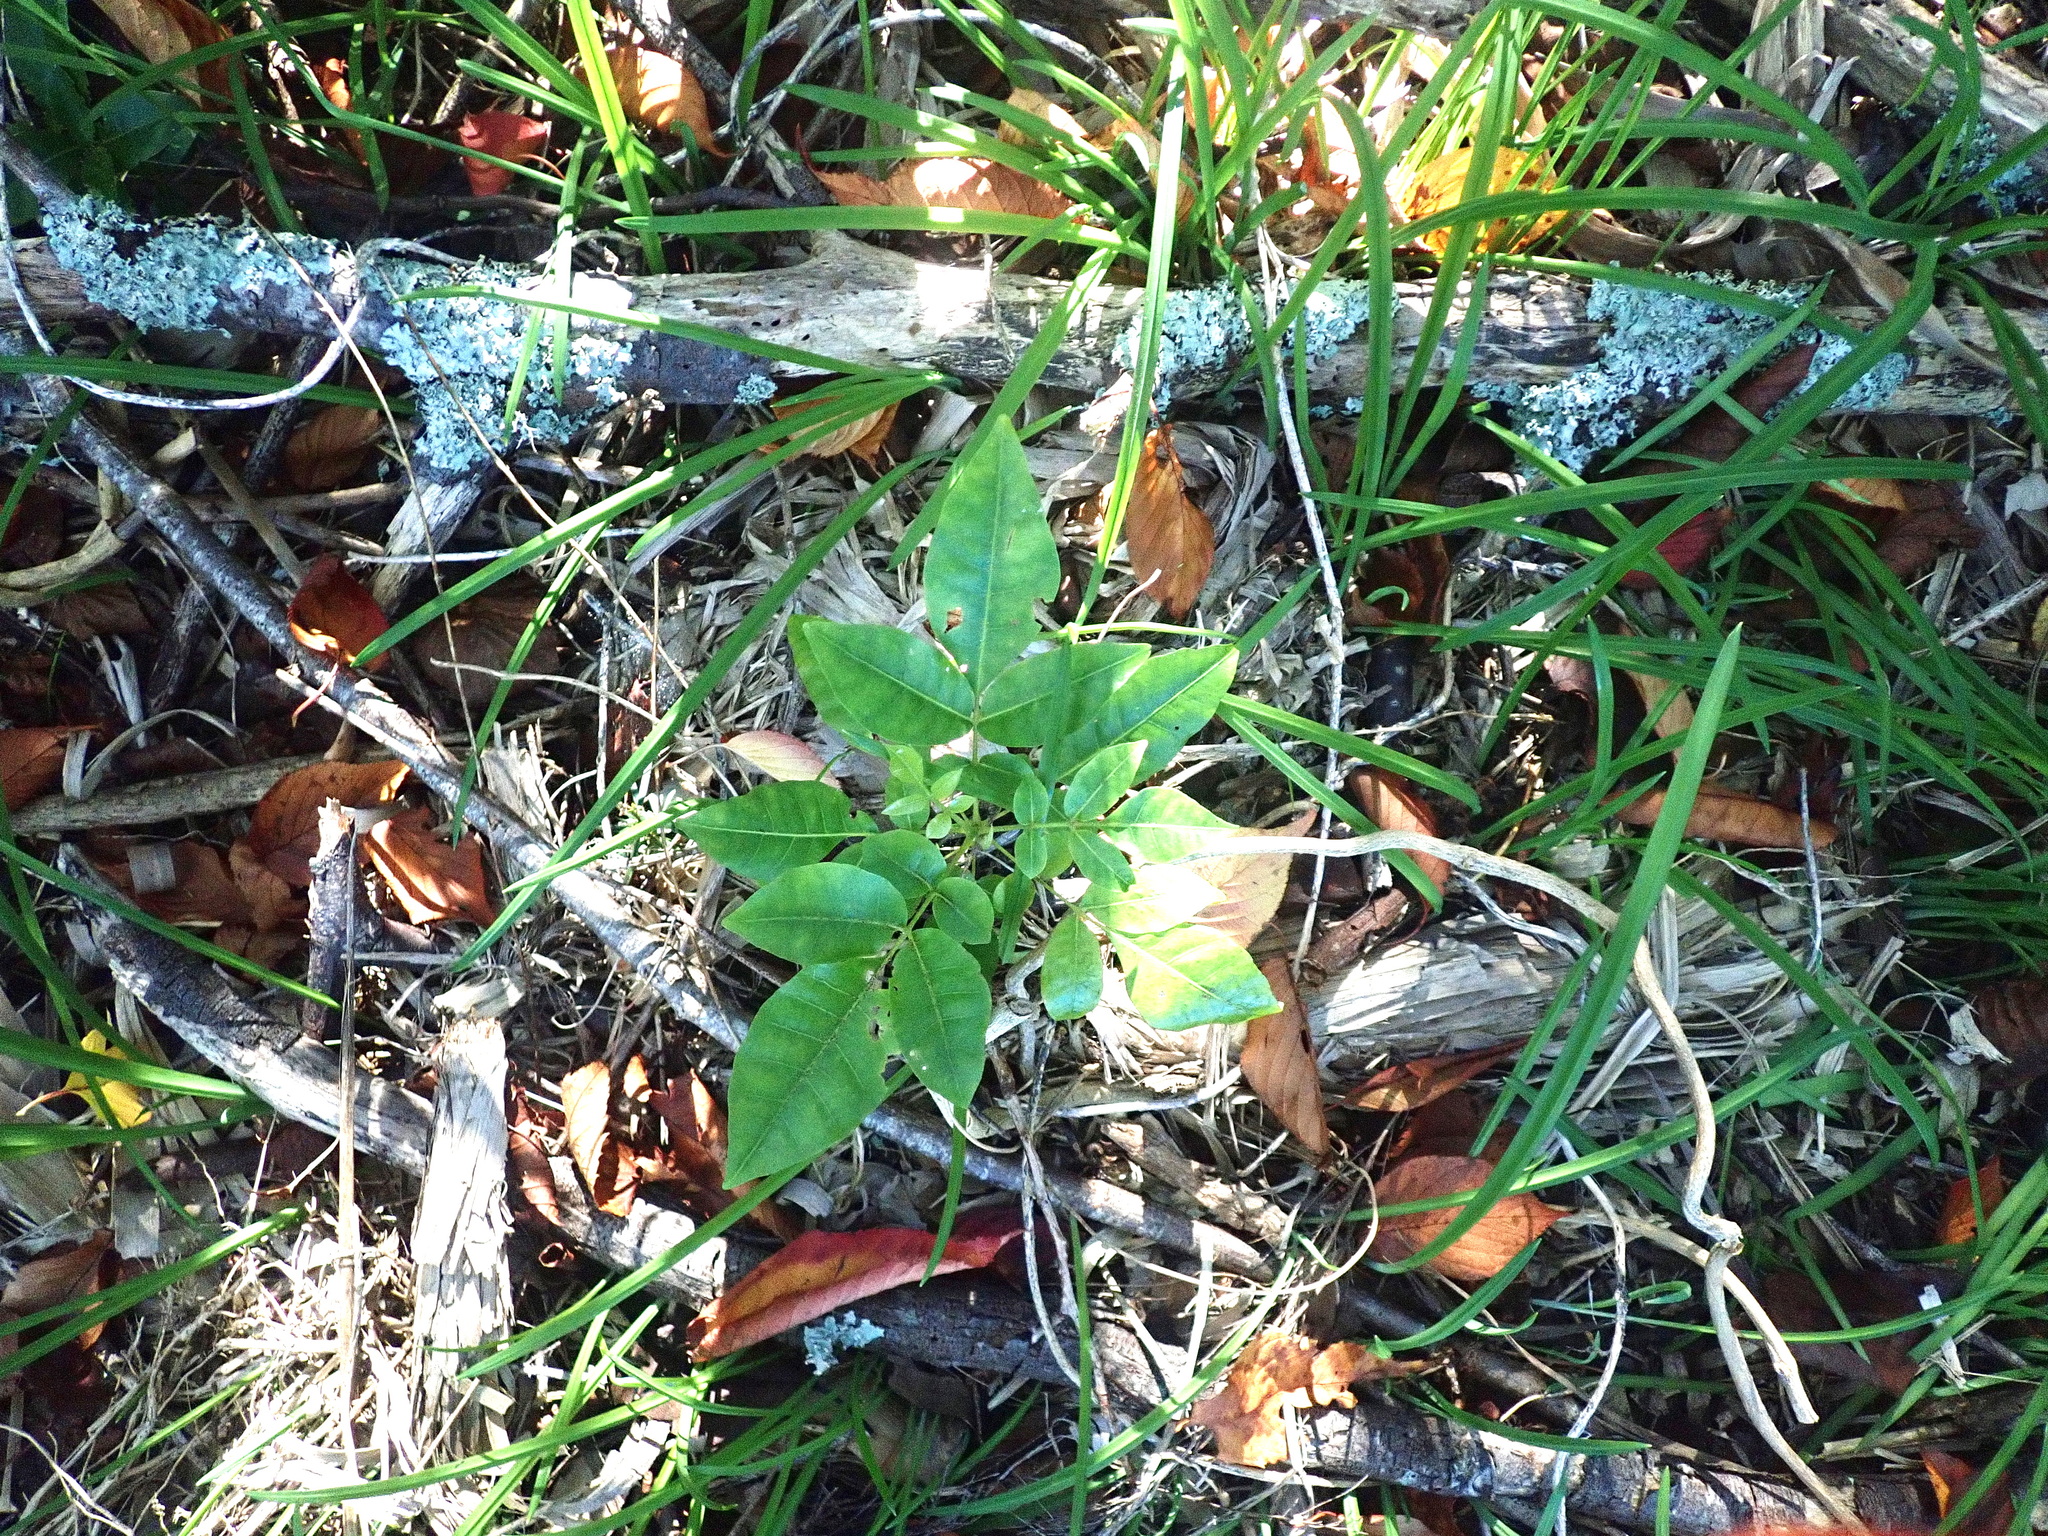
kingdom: Plantae
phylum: Tracheophyta
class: Magnoliopsida
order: Sapindales
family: Meliaceae
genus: Didymocheton
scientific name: Didymocheton spectabilis
